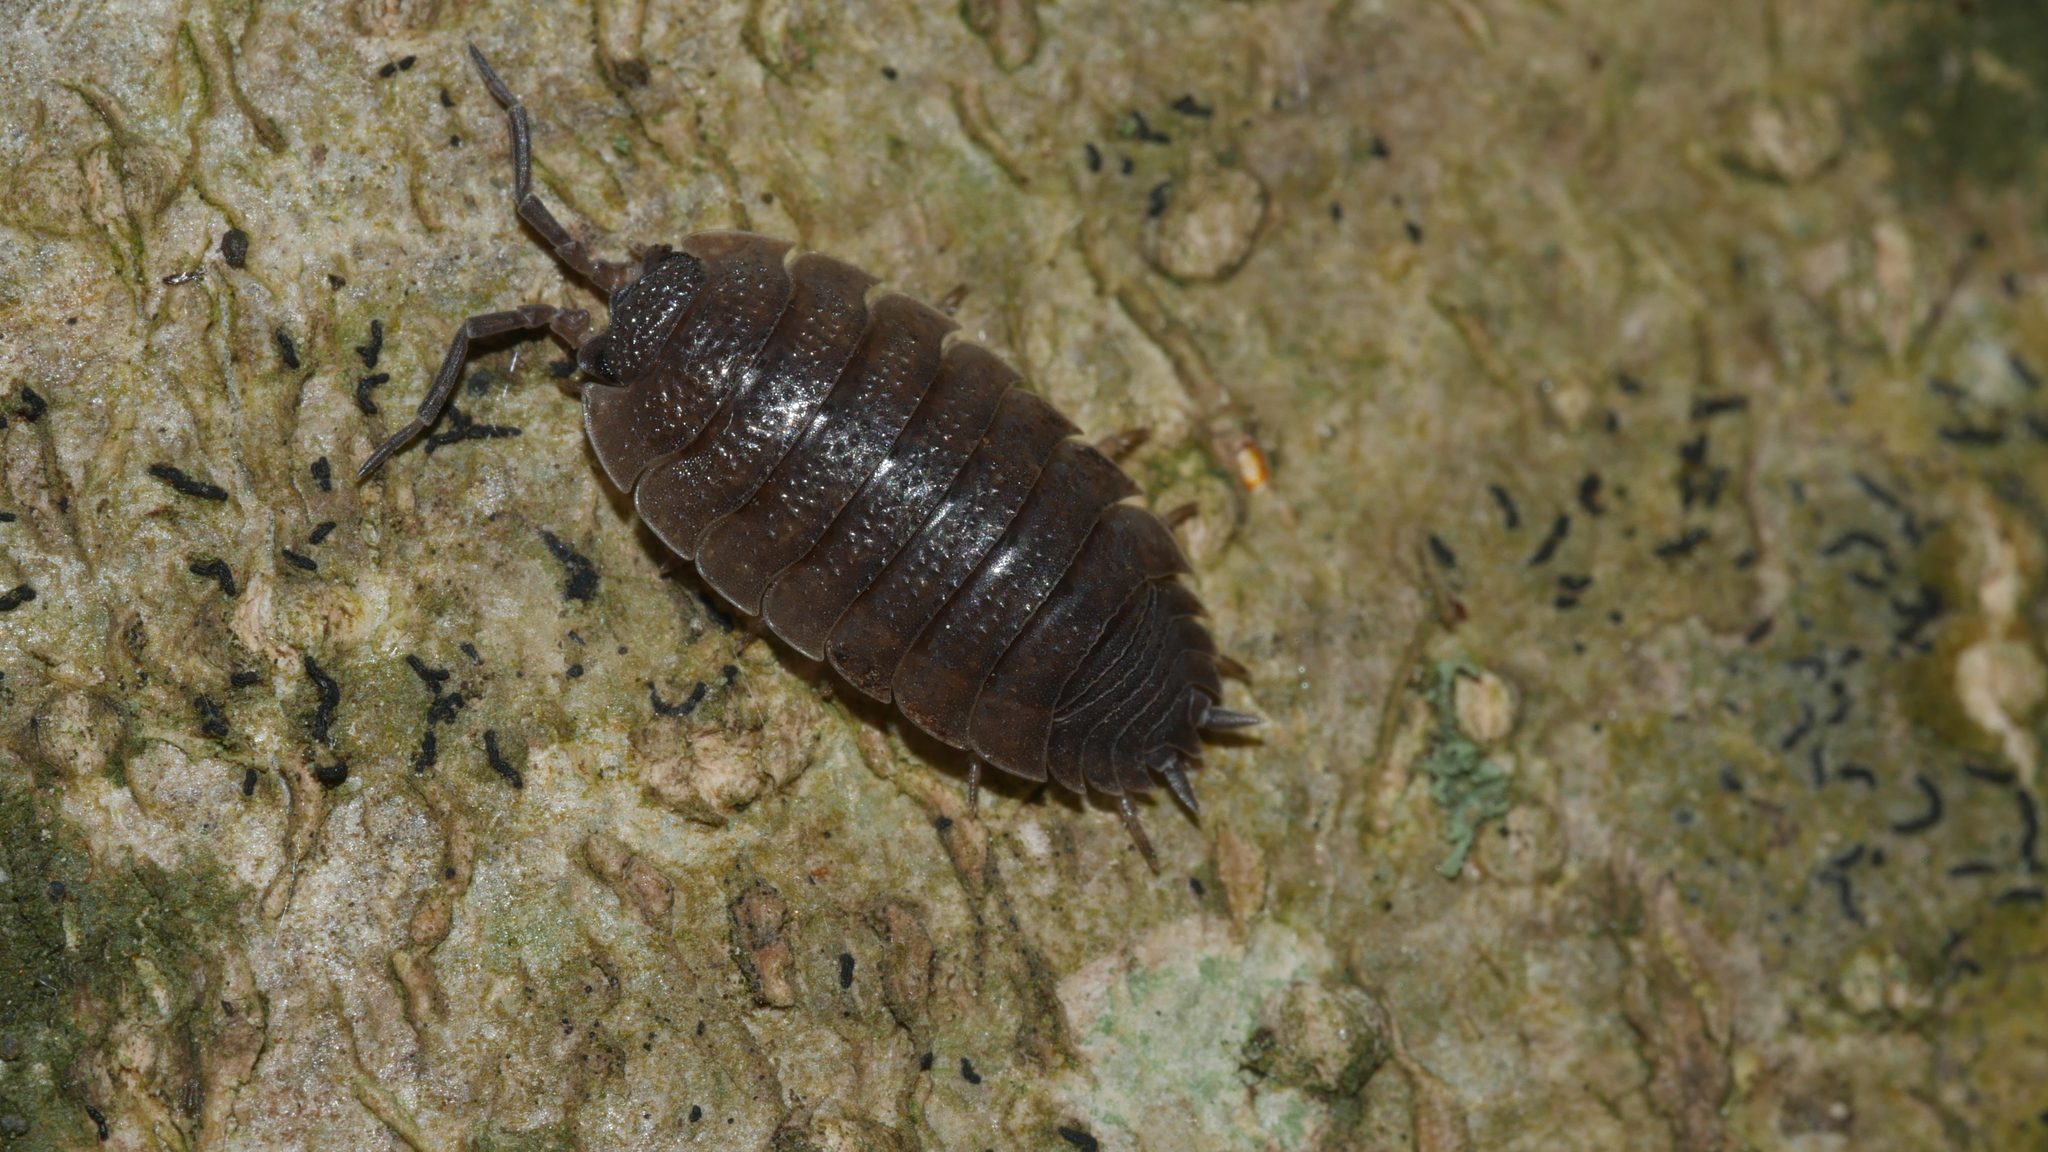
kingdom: Animalia
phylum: Arthropoda
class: Malacostraca
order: Isopoda
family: Porcellionidae
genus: Porcellio
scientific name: Porcellio scaber
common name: Common rough woodlouse
